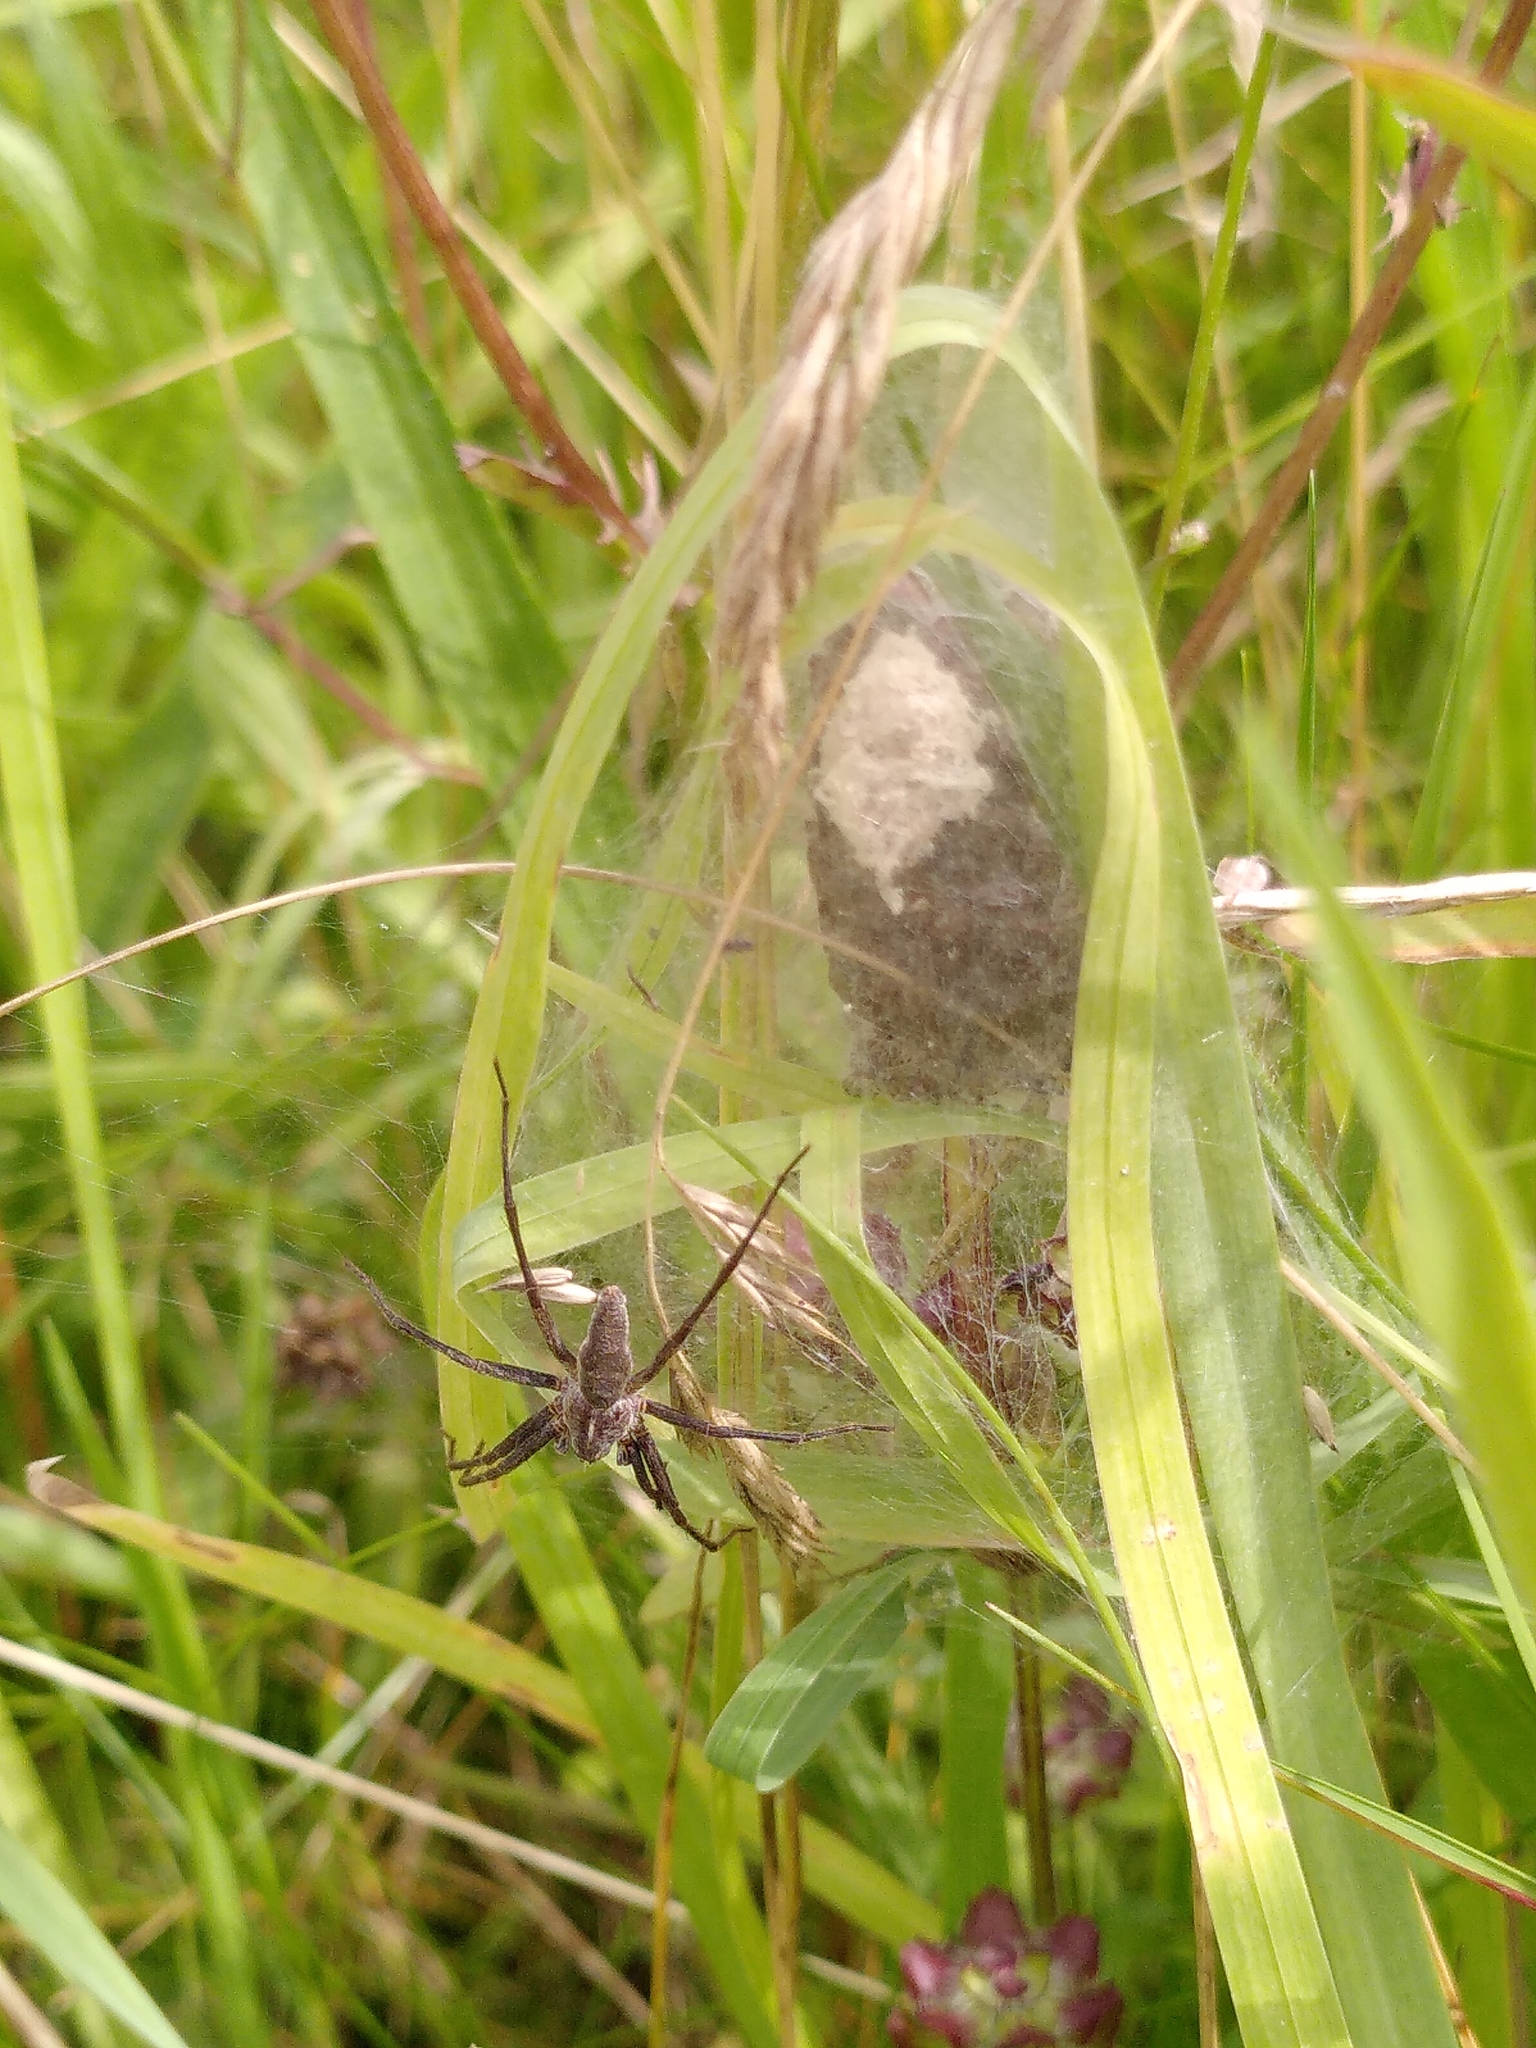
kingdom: Animalia
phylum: Arthropoda
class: Arachnida
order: Araneae
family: Pisauridae
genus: Pisaura
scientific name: Pisaura mirabilis
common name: Tent spider
